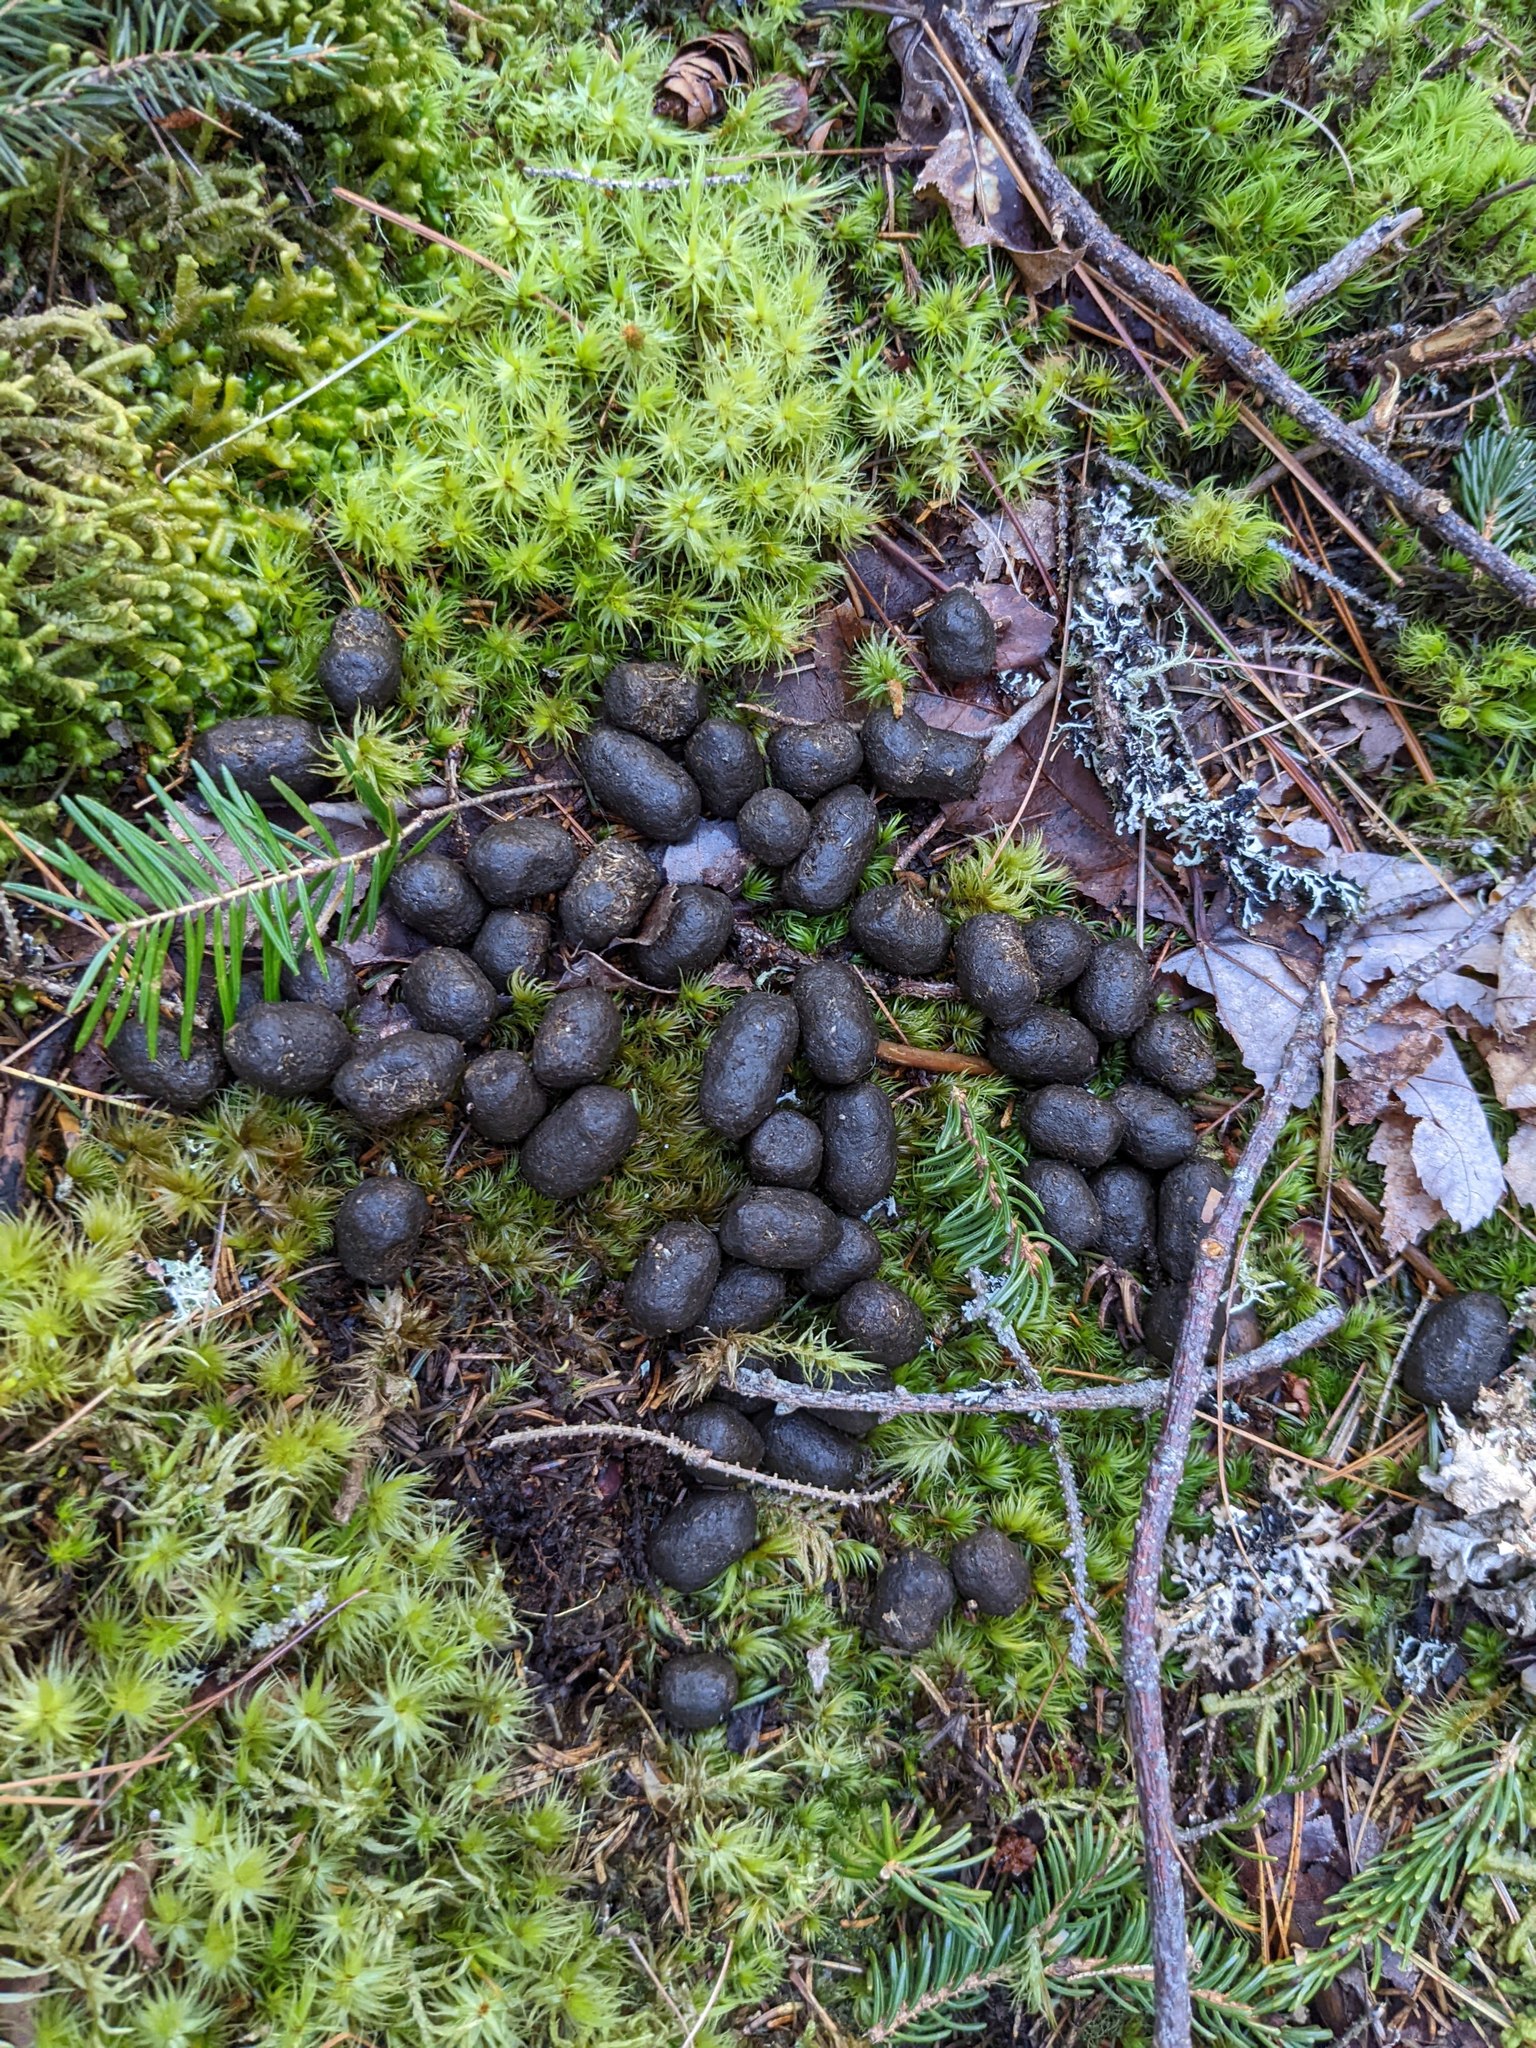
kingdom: Animalia
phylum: Chordata
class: Mammalia
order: Artiodactyla
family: Cervidae
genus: Odocoileus
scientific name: Odocoileus virginianus
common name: White-tailed deer
